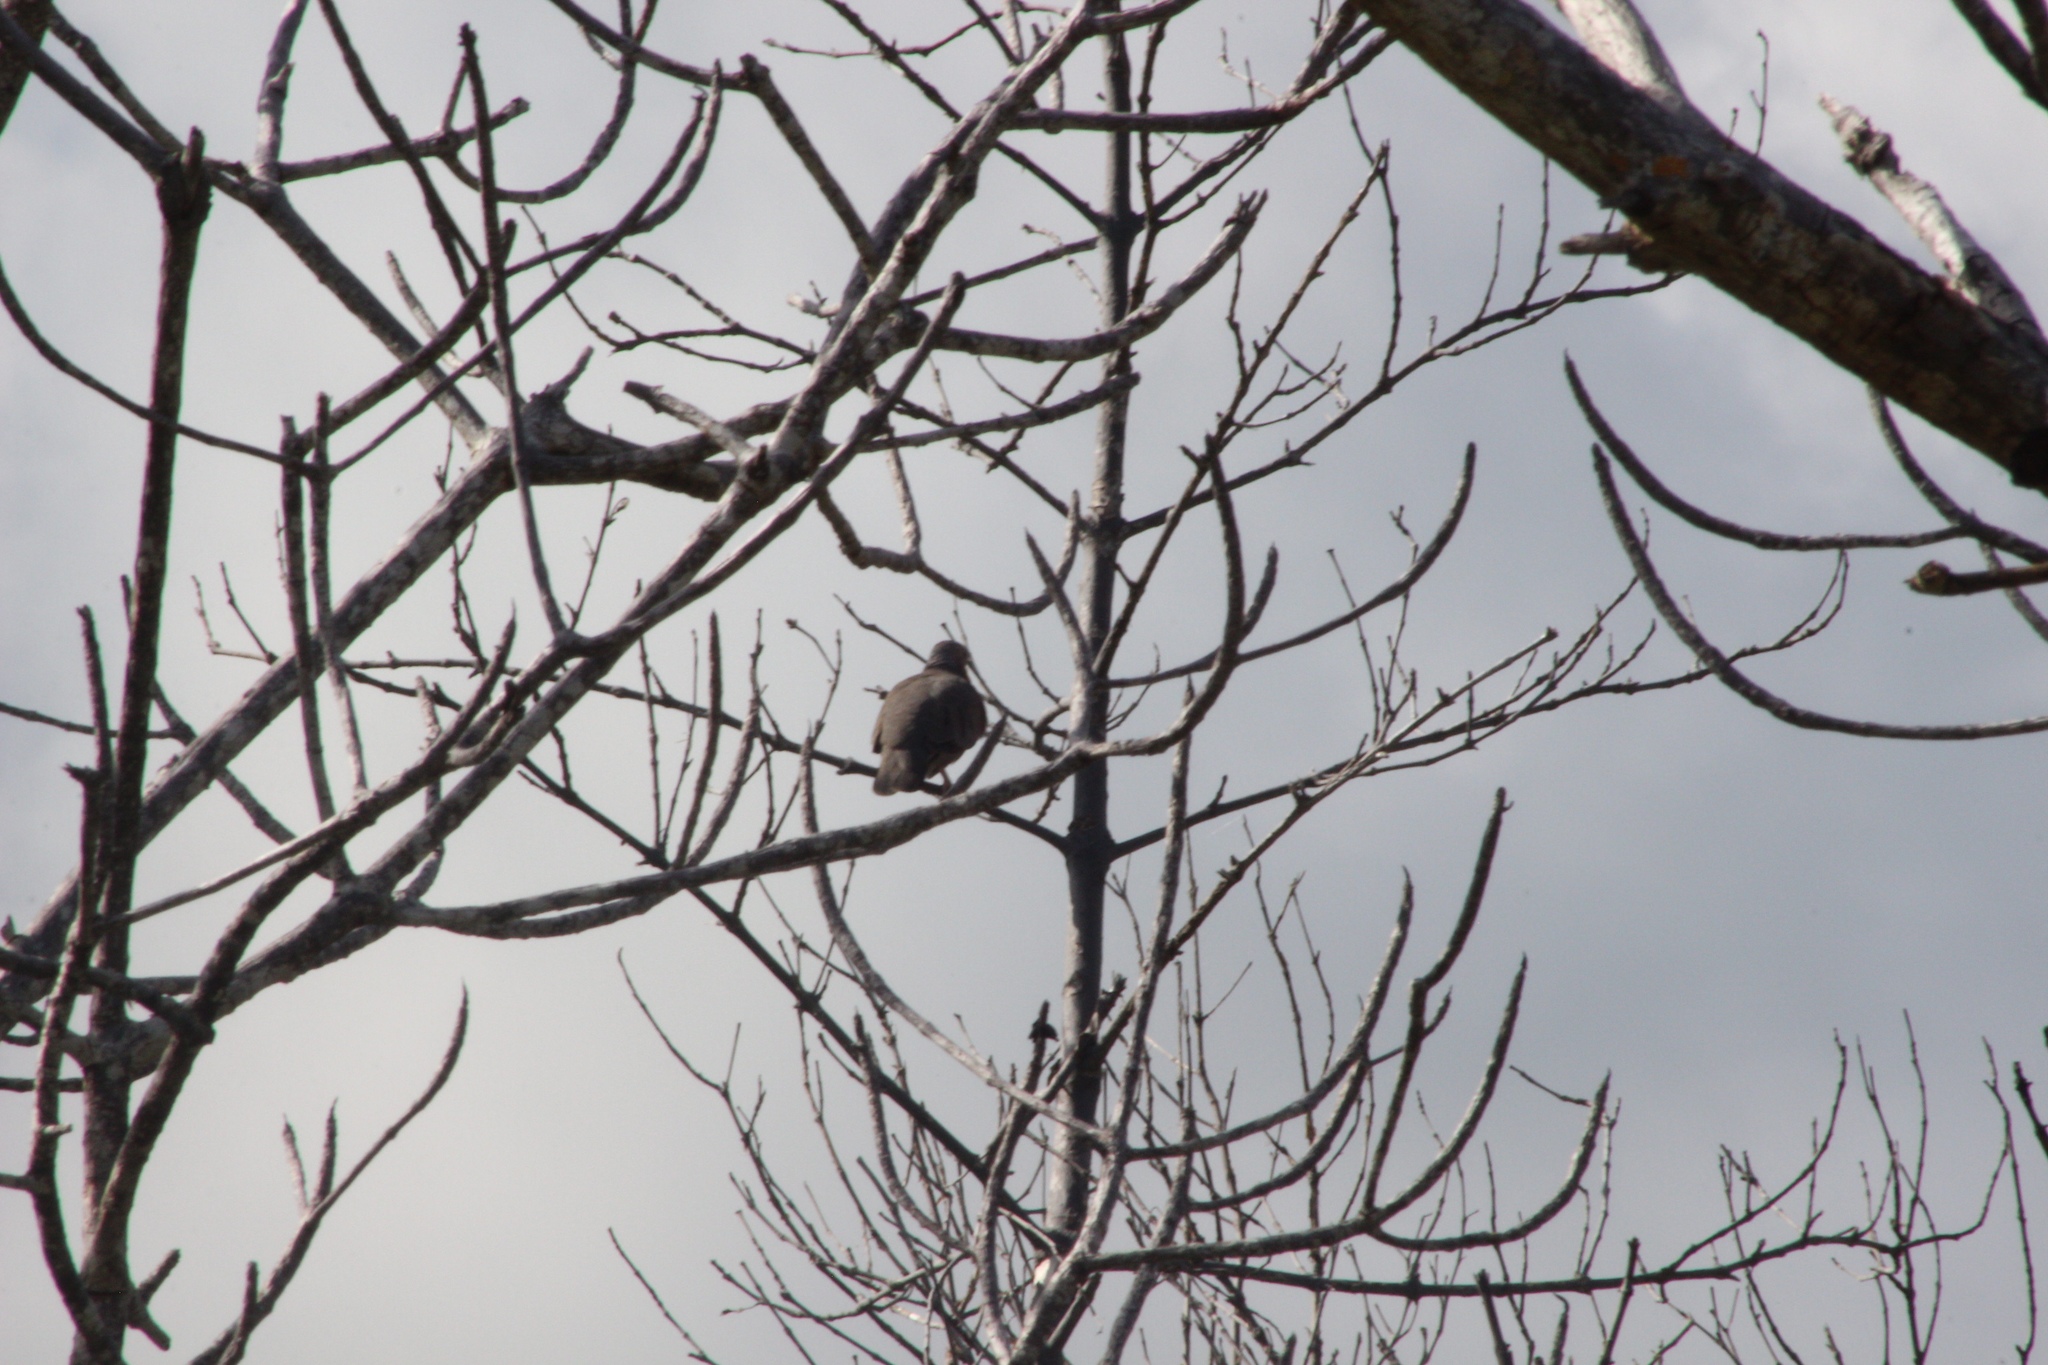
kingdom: Animalia
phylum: Chordata
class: Aves
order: Columbiformes
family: Columbidae
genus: Columbina
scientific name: Columbina passerina
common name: Common ground-dove
